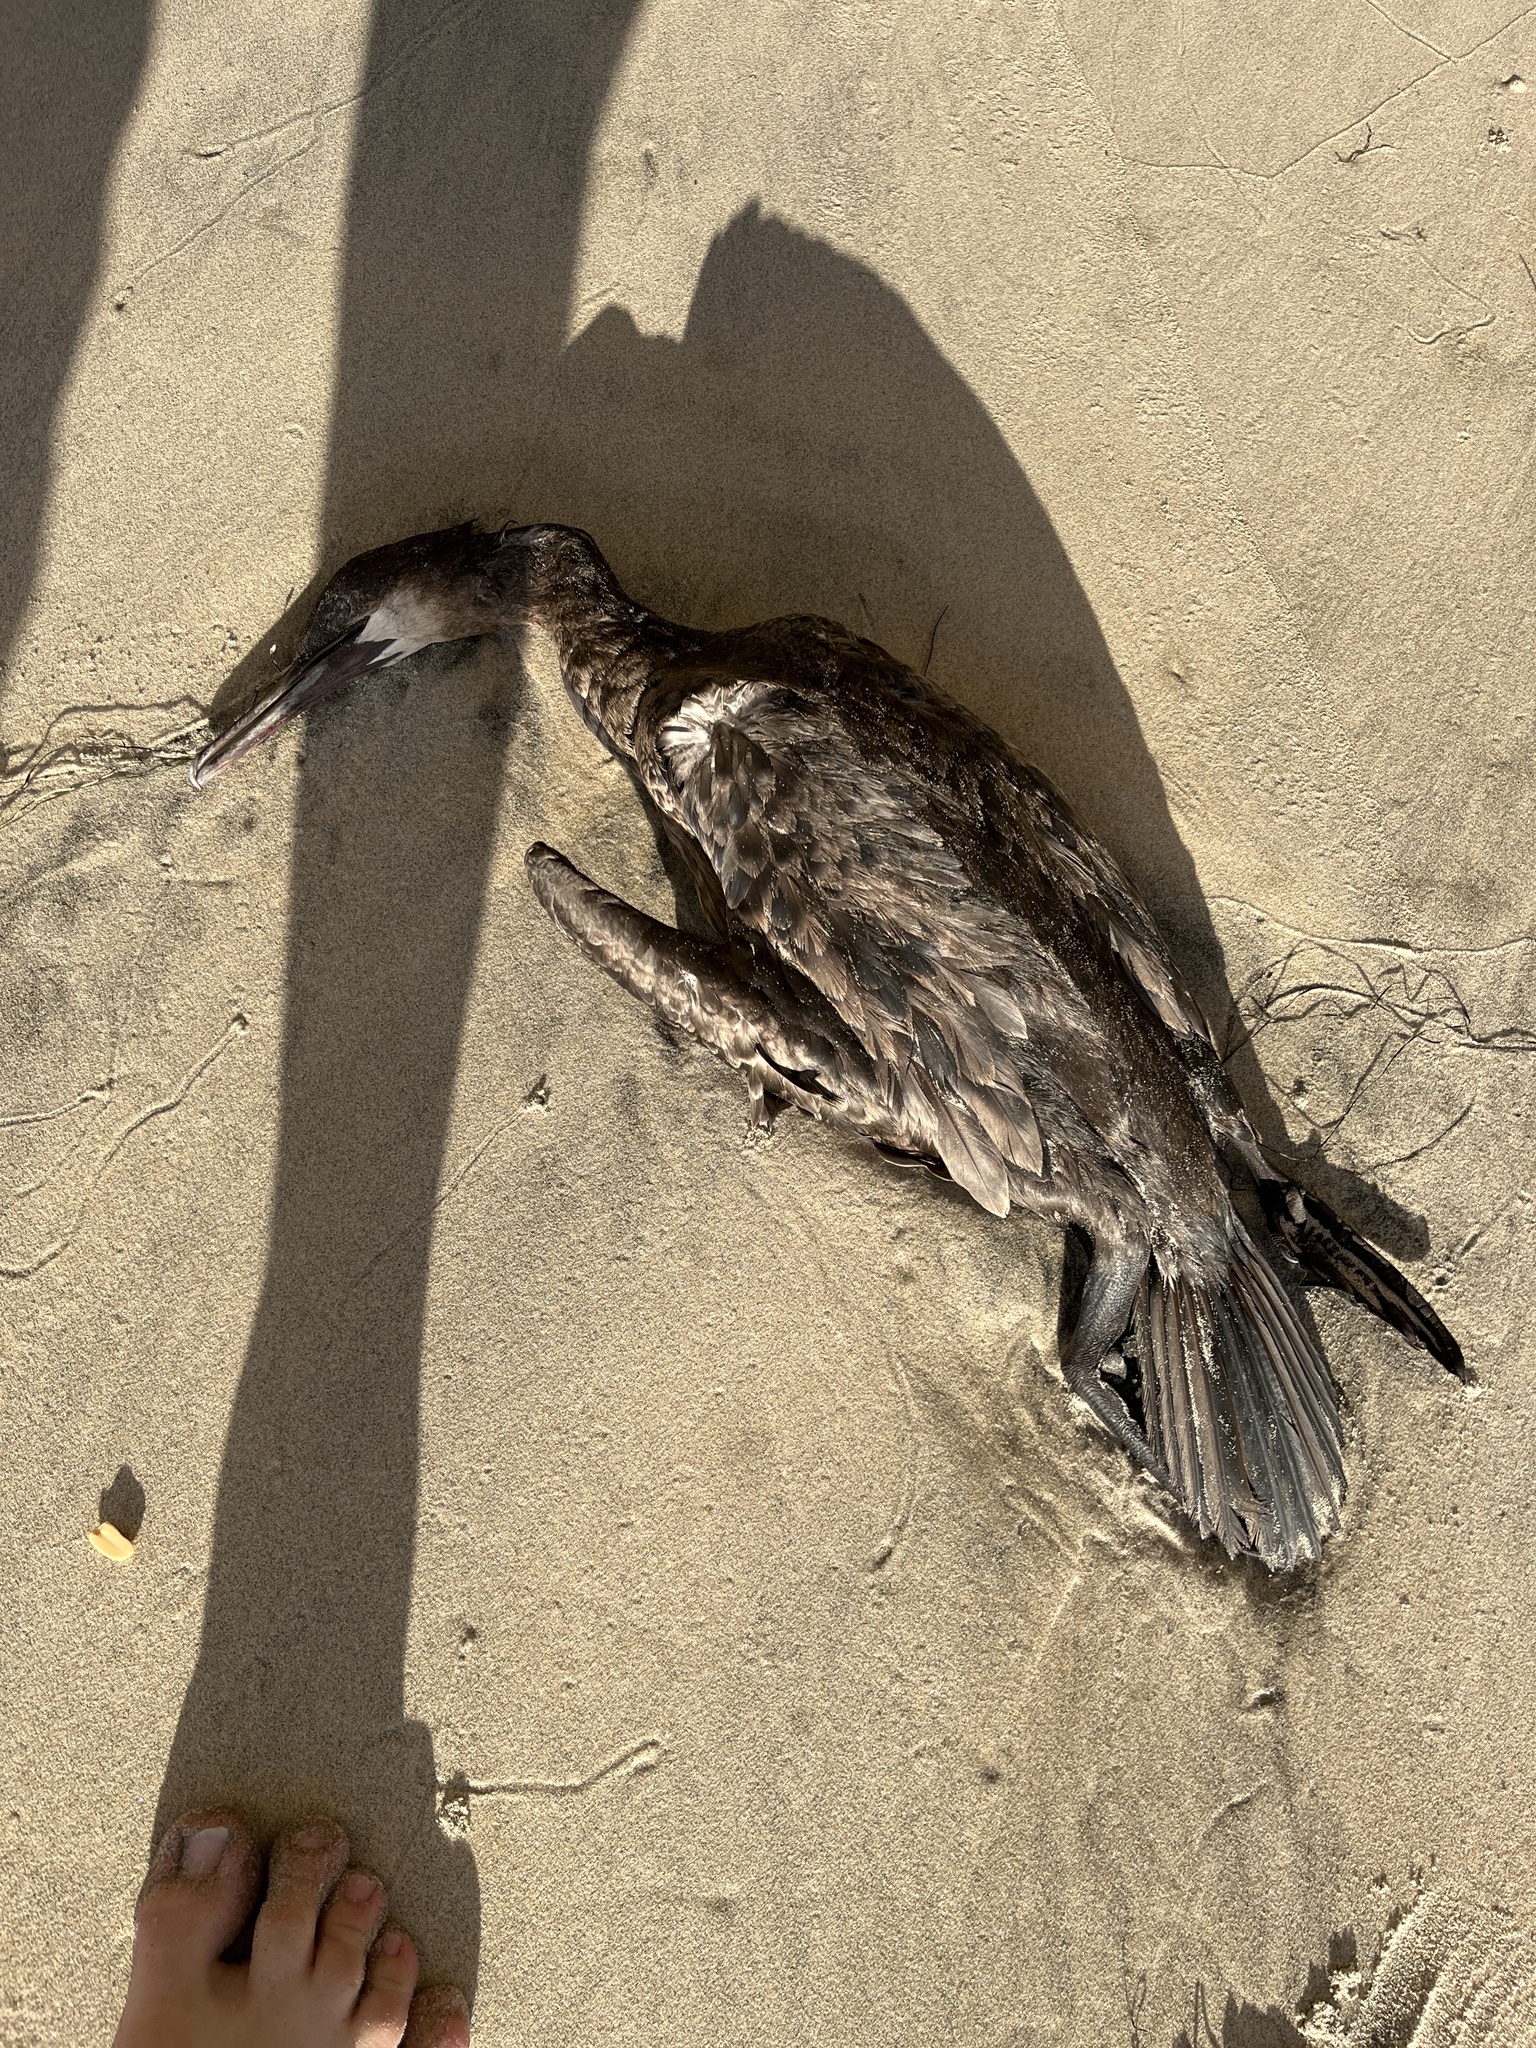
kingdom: Animalia
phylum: Chordata
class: Aves
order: Suliformes
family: Phalacrocoracidae
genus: Urile
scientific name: Urile penicillatus
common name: Brandt's cormorant
